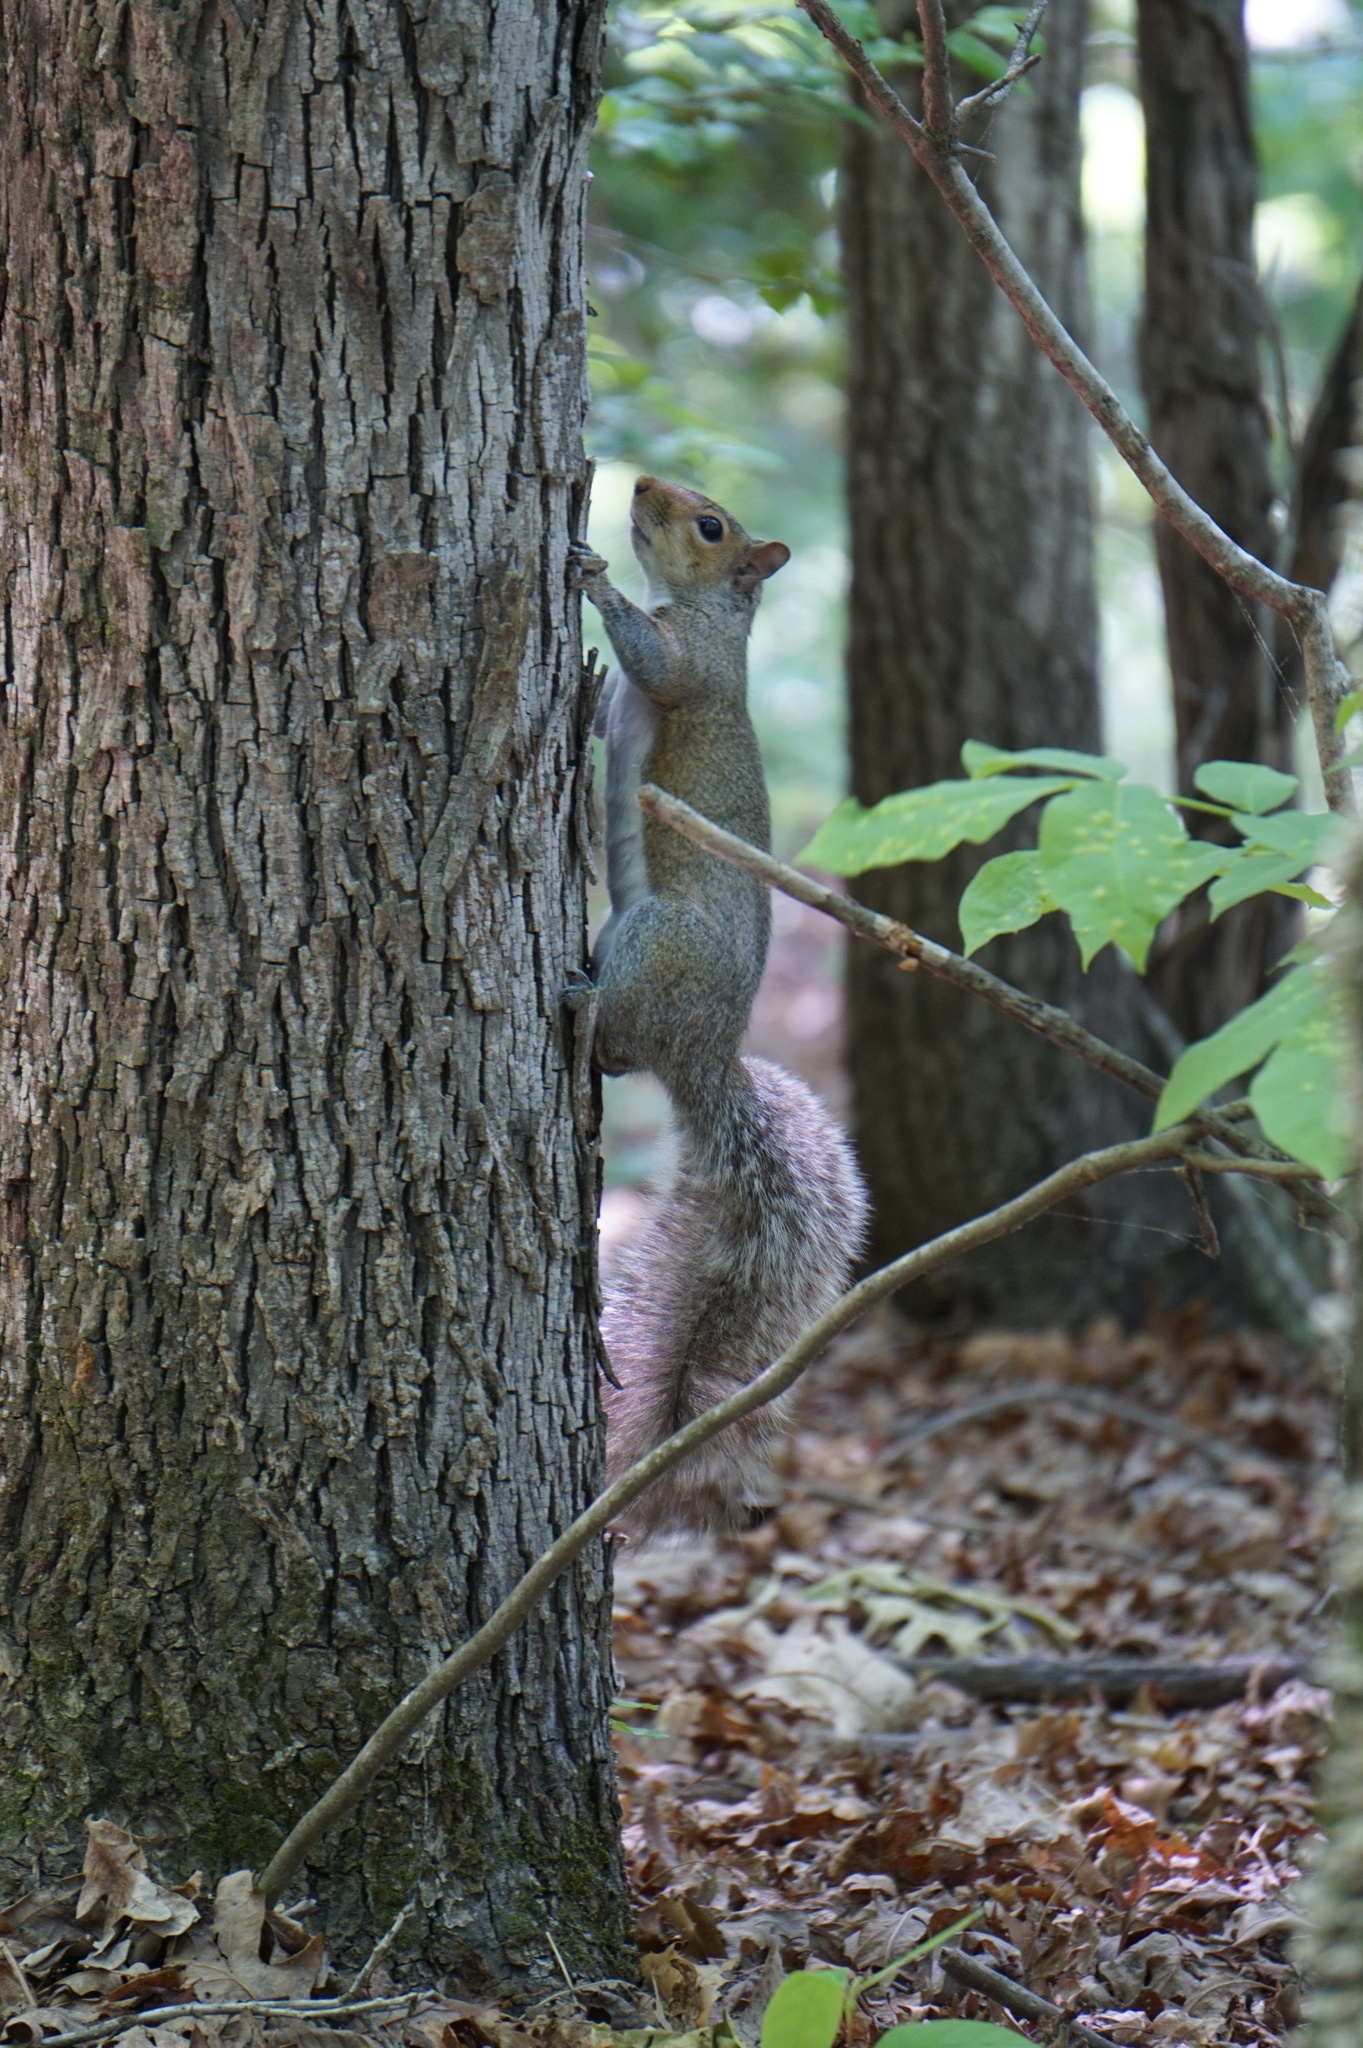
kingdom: Animalia
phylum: Chordata
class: Mammalia
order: Rodentia
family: Sciuridae
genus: Sciurus
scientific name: Sciurus carolinensis
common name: Eastern gray squirrel
